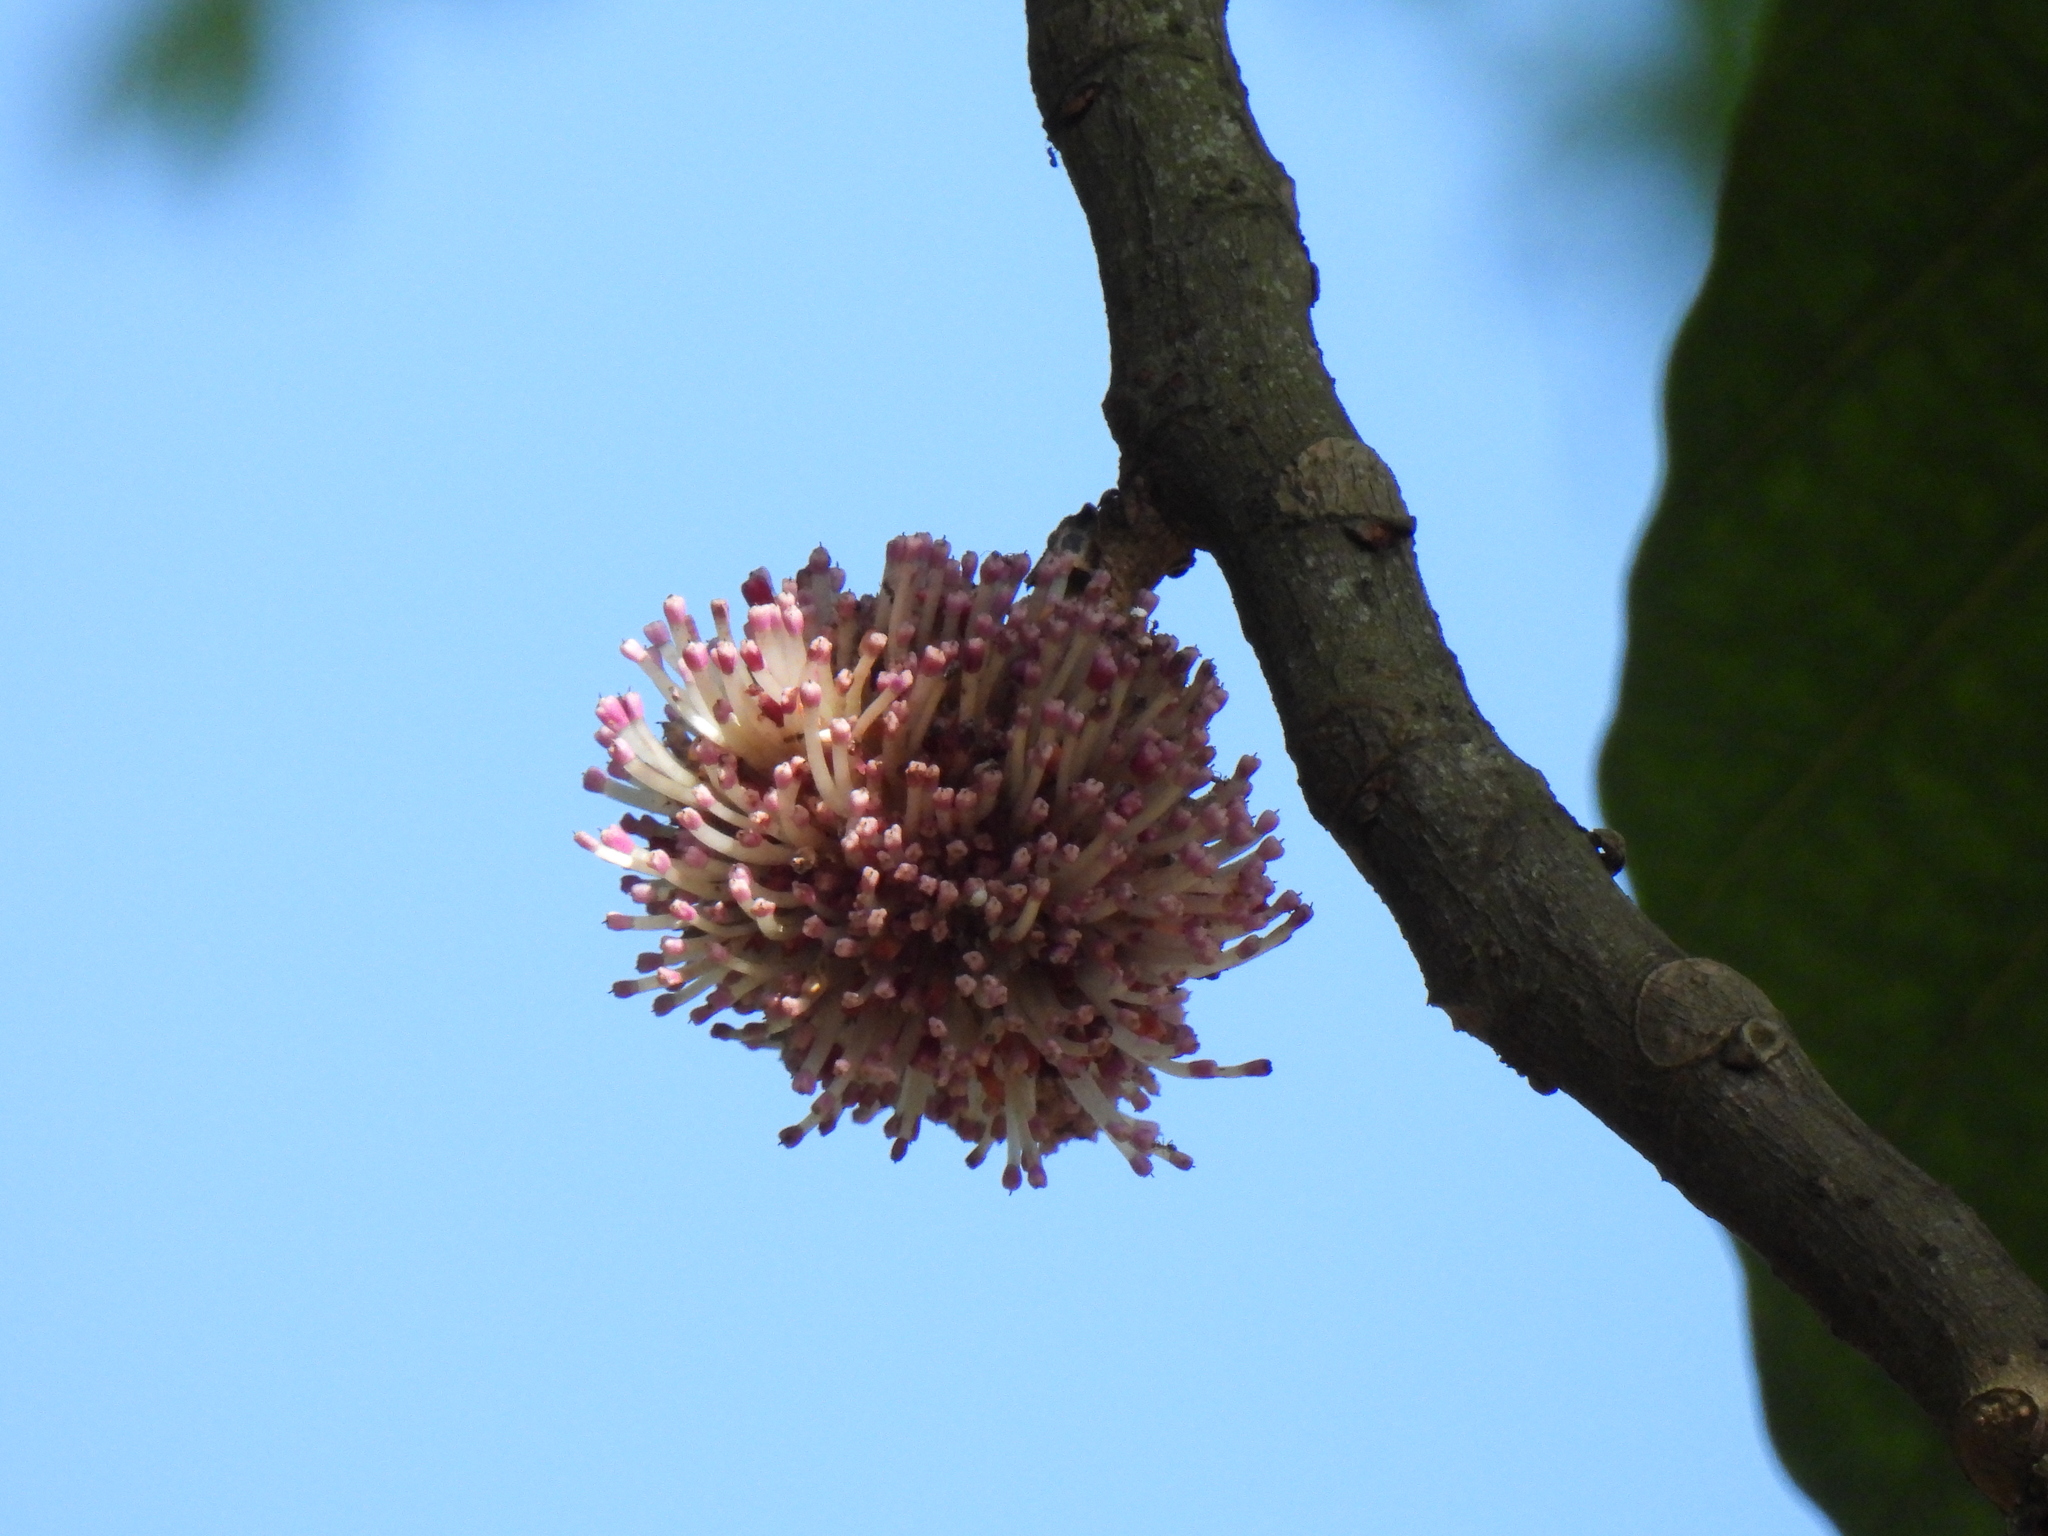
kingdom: Plantae
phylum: Tracheophyta
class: Magnoliopsida
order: Rosales
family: Urticaceae
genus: Poikilospermum
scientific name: Poikilospermum suaveolens
